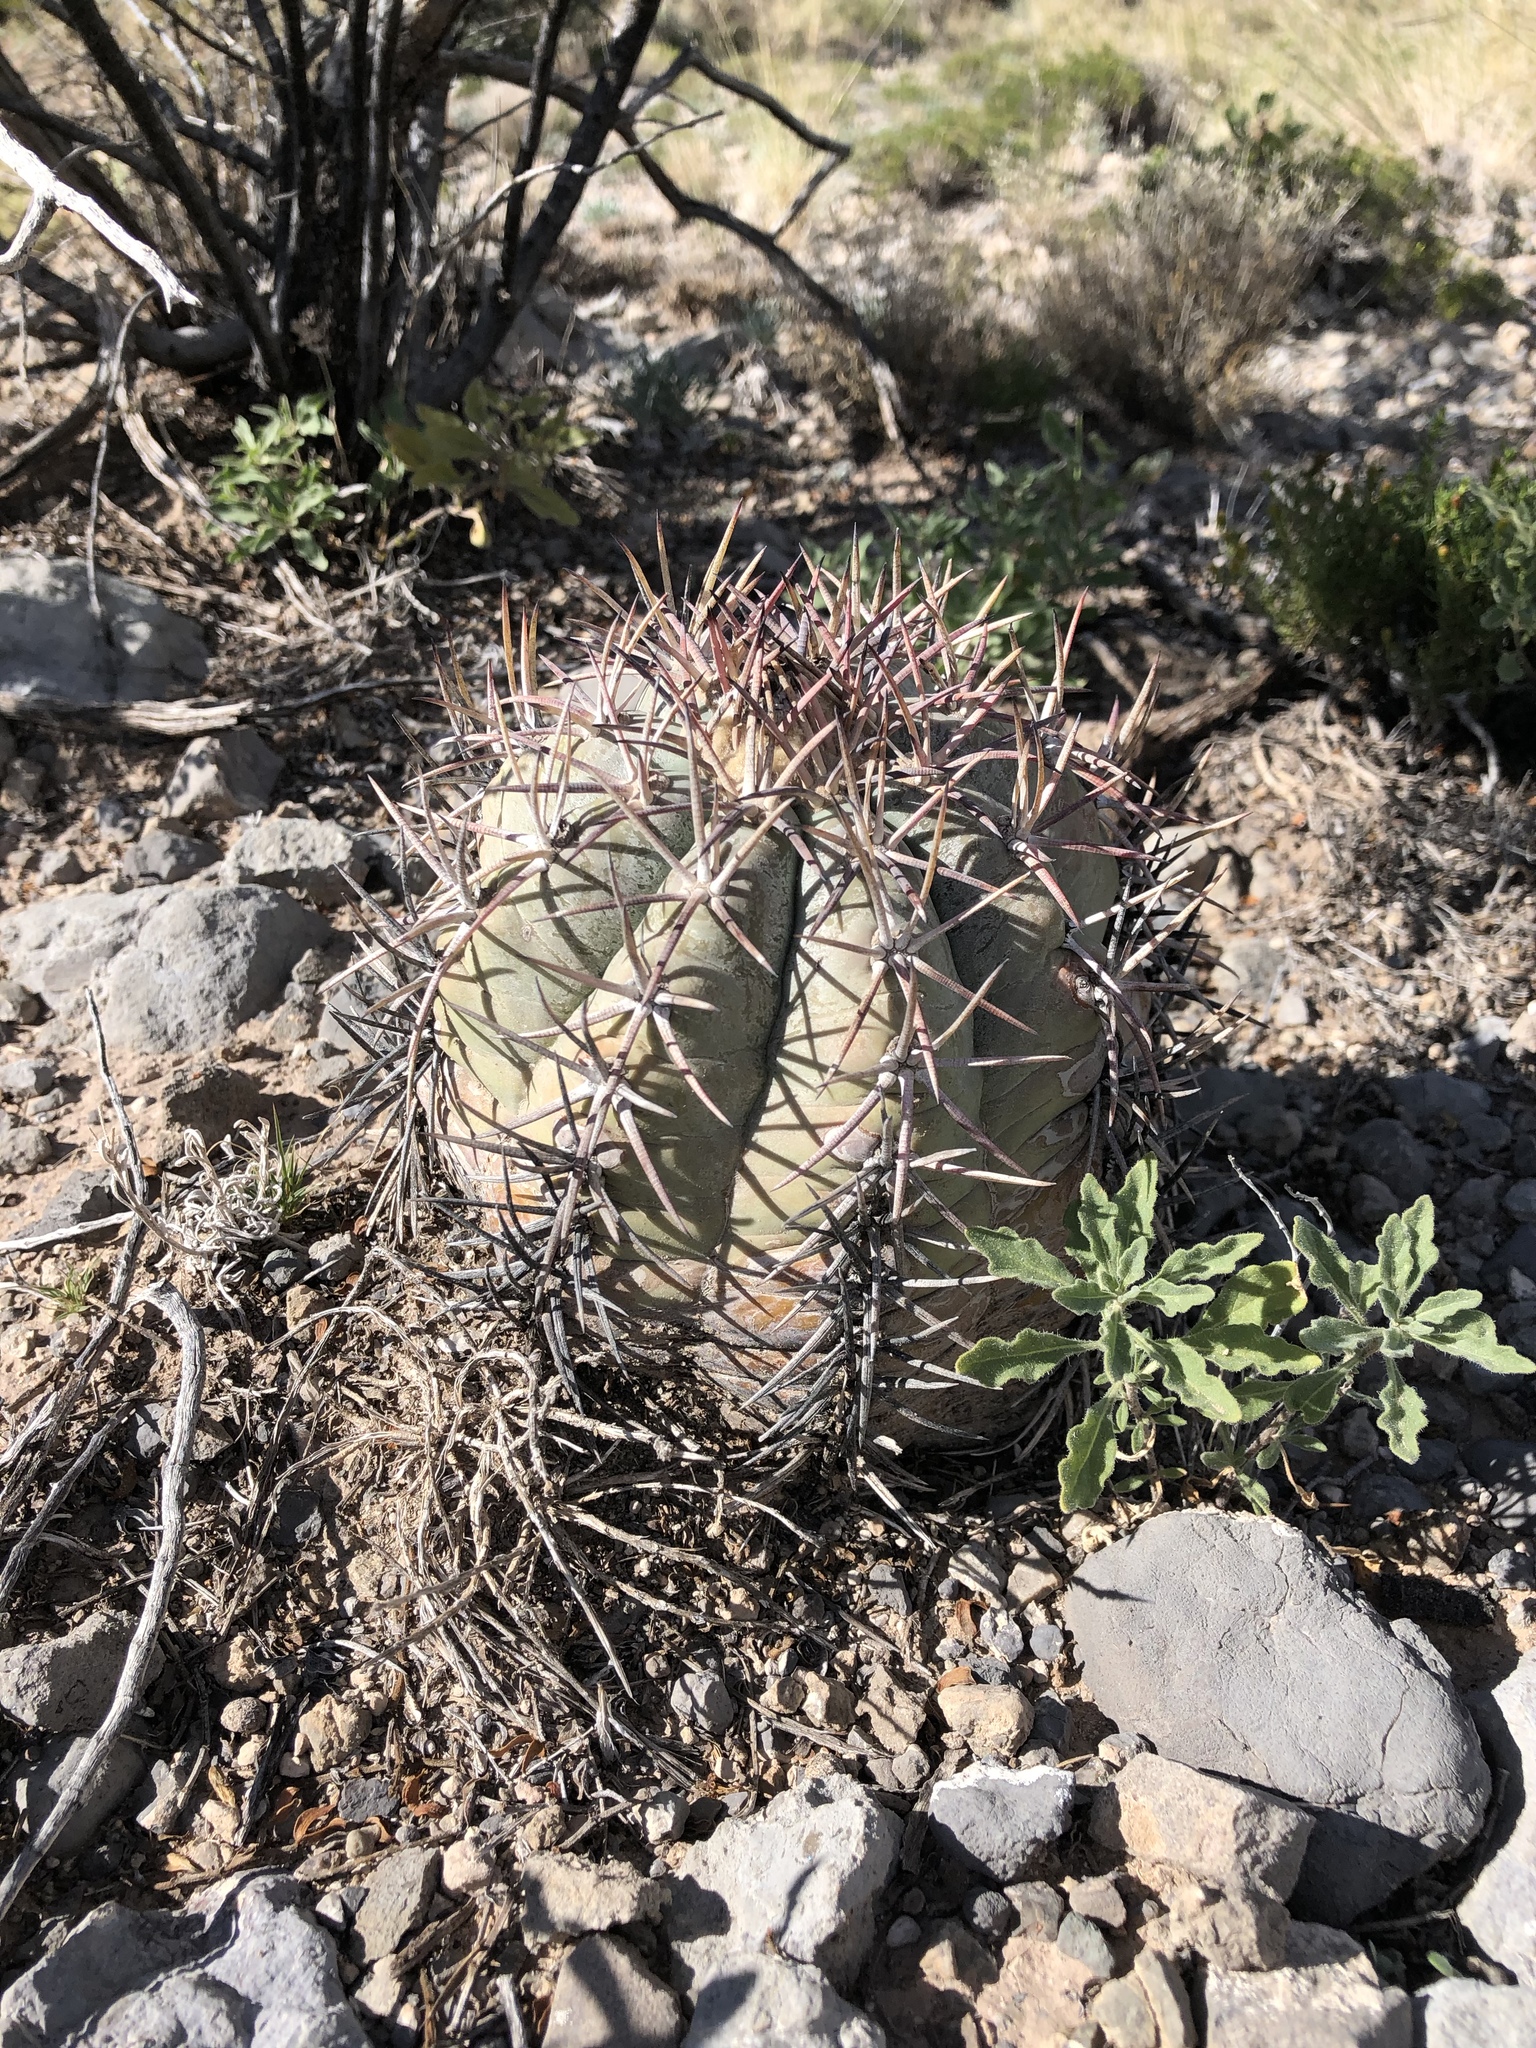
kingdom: Plantae
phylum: Tracheophyta
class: Magnoliopsida
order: Caryophyllales
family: Cactaceae
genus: Echinocactus
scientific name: Echinocactus horizonthalonius
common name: Devilshead
